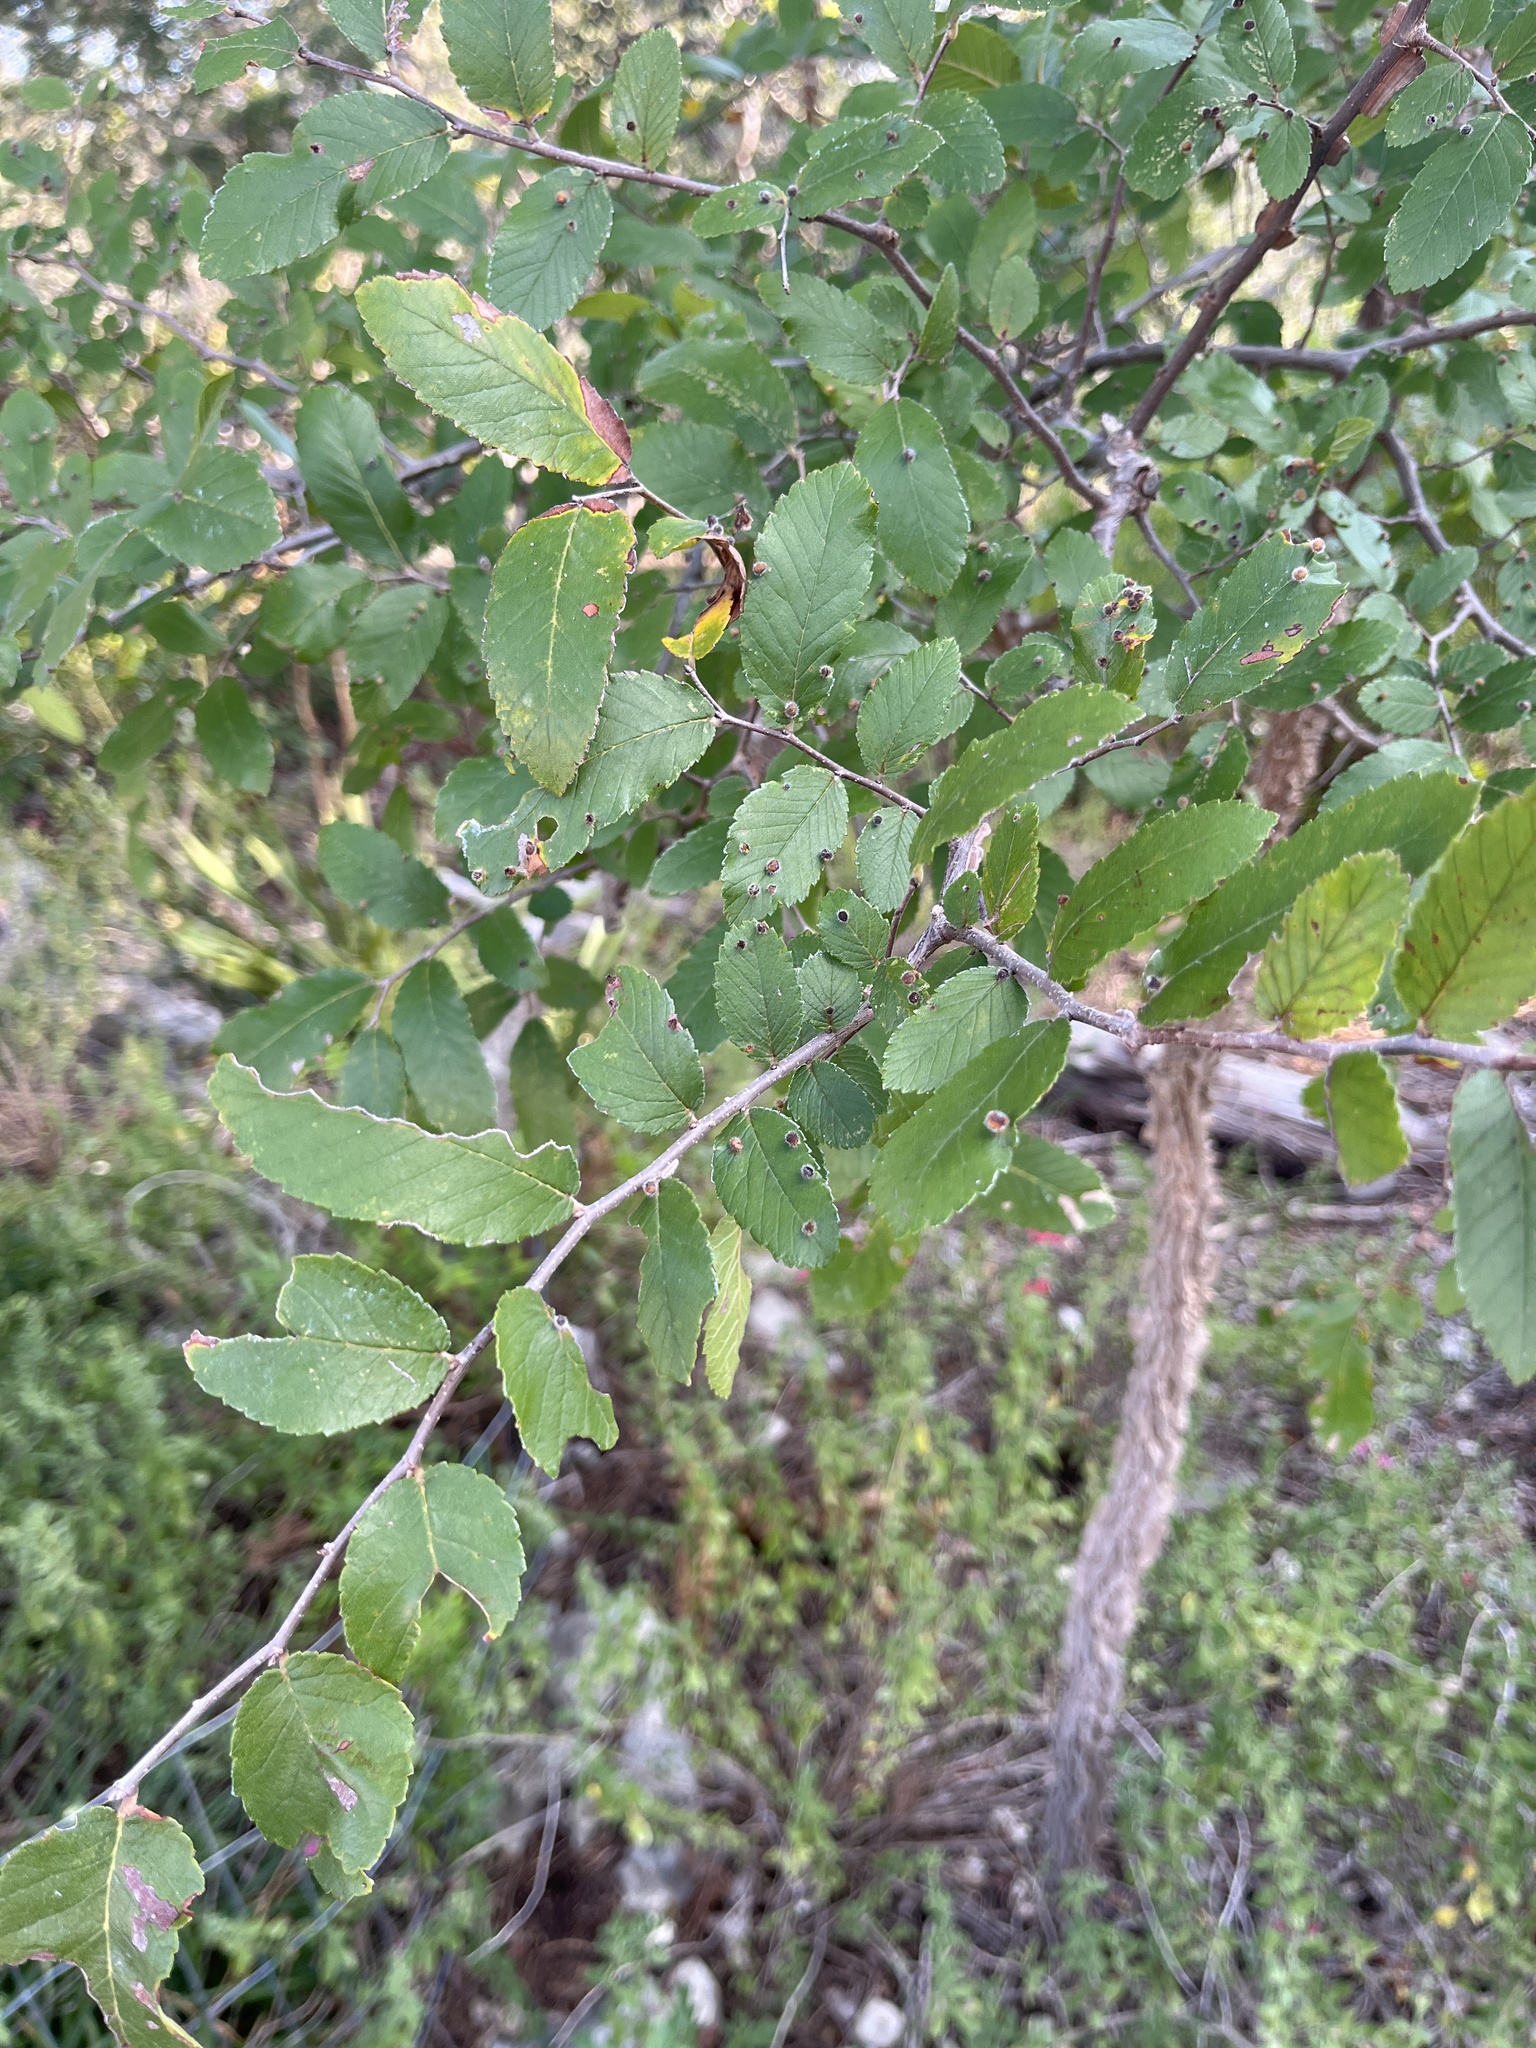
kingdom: Plantae
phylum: Tracheophyta
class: Magnoliopsida
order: Rosales
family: Ulmaceae
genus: Ulmus
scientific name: Ulmus crassifolia
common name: Basket elm
